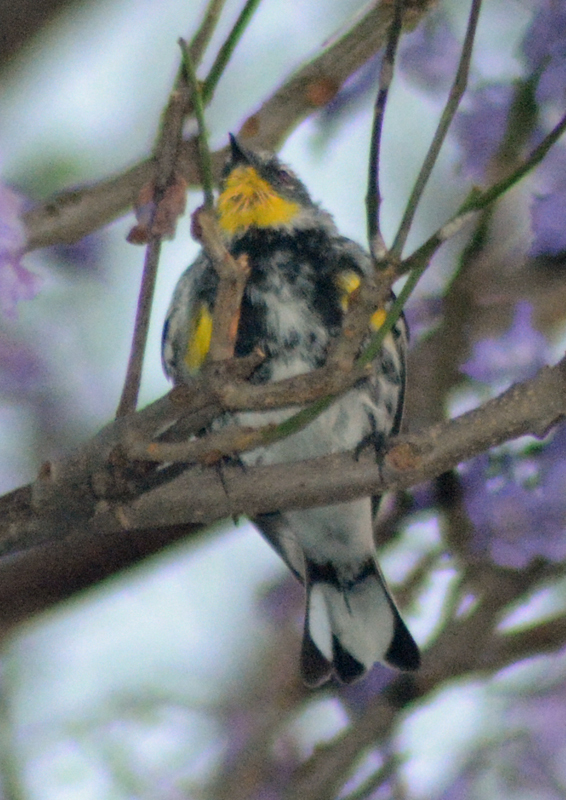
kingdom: Animalia
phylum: Chordata
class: Aves
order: Passeriformes
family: Parulidae
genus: Setophaga
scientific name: Setophaga coronata
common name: Myrtle warbler
